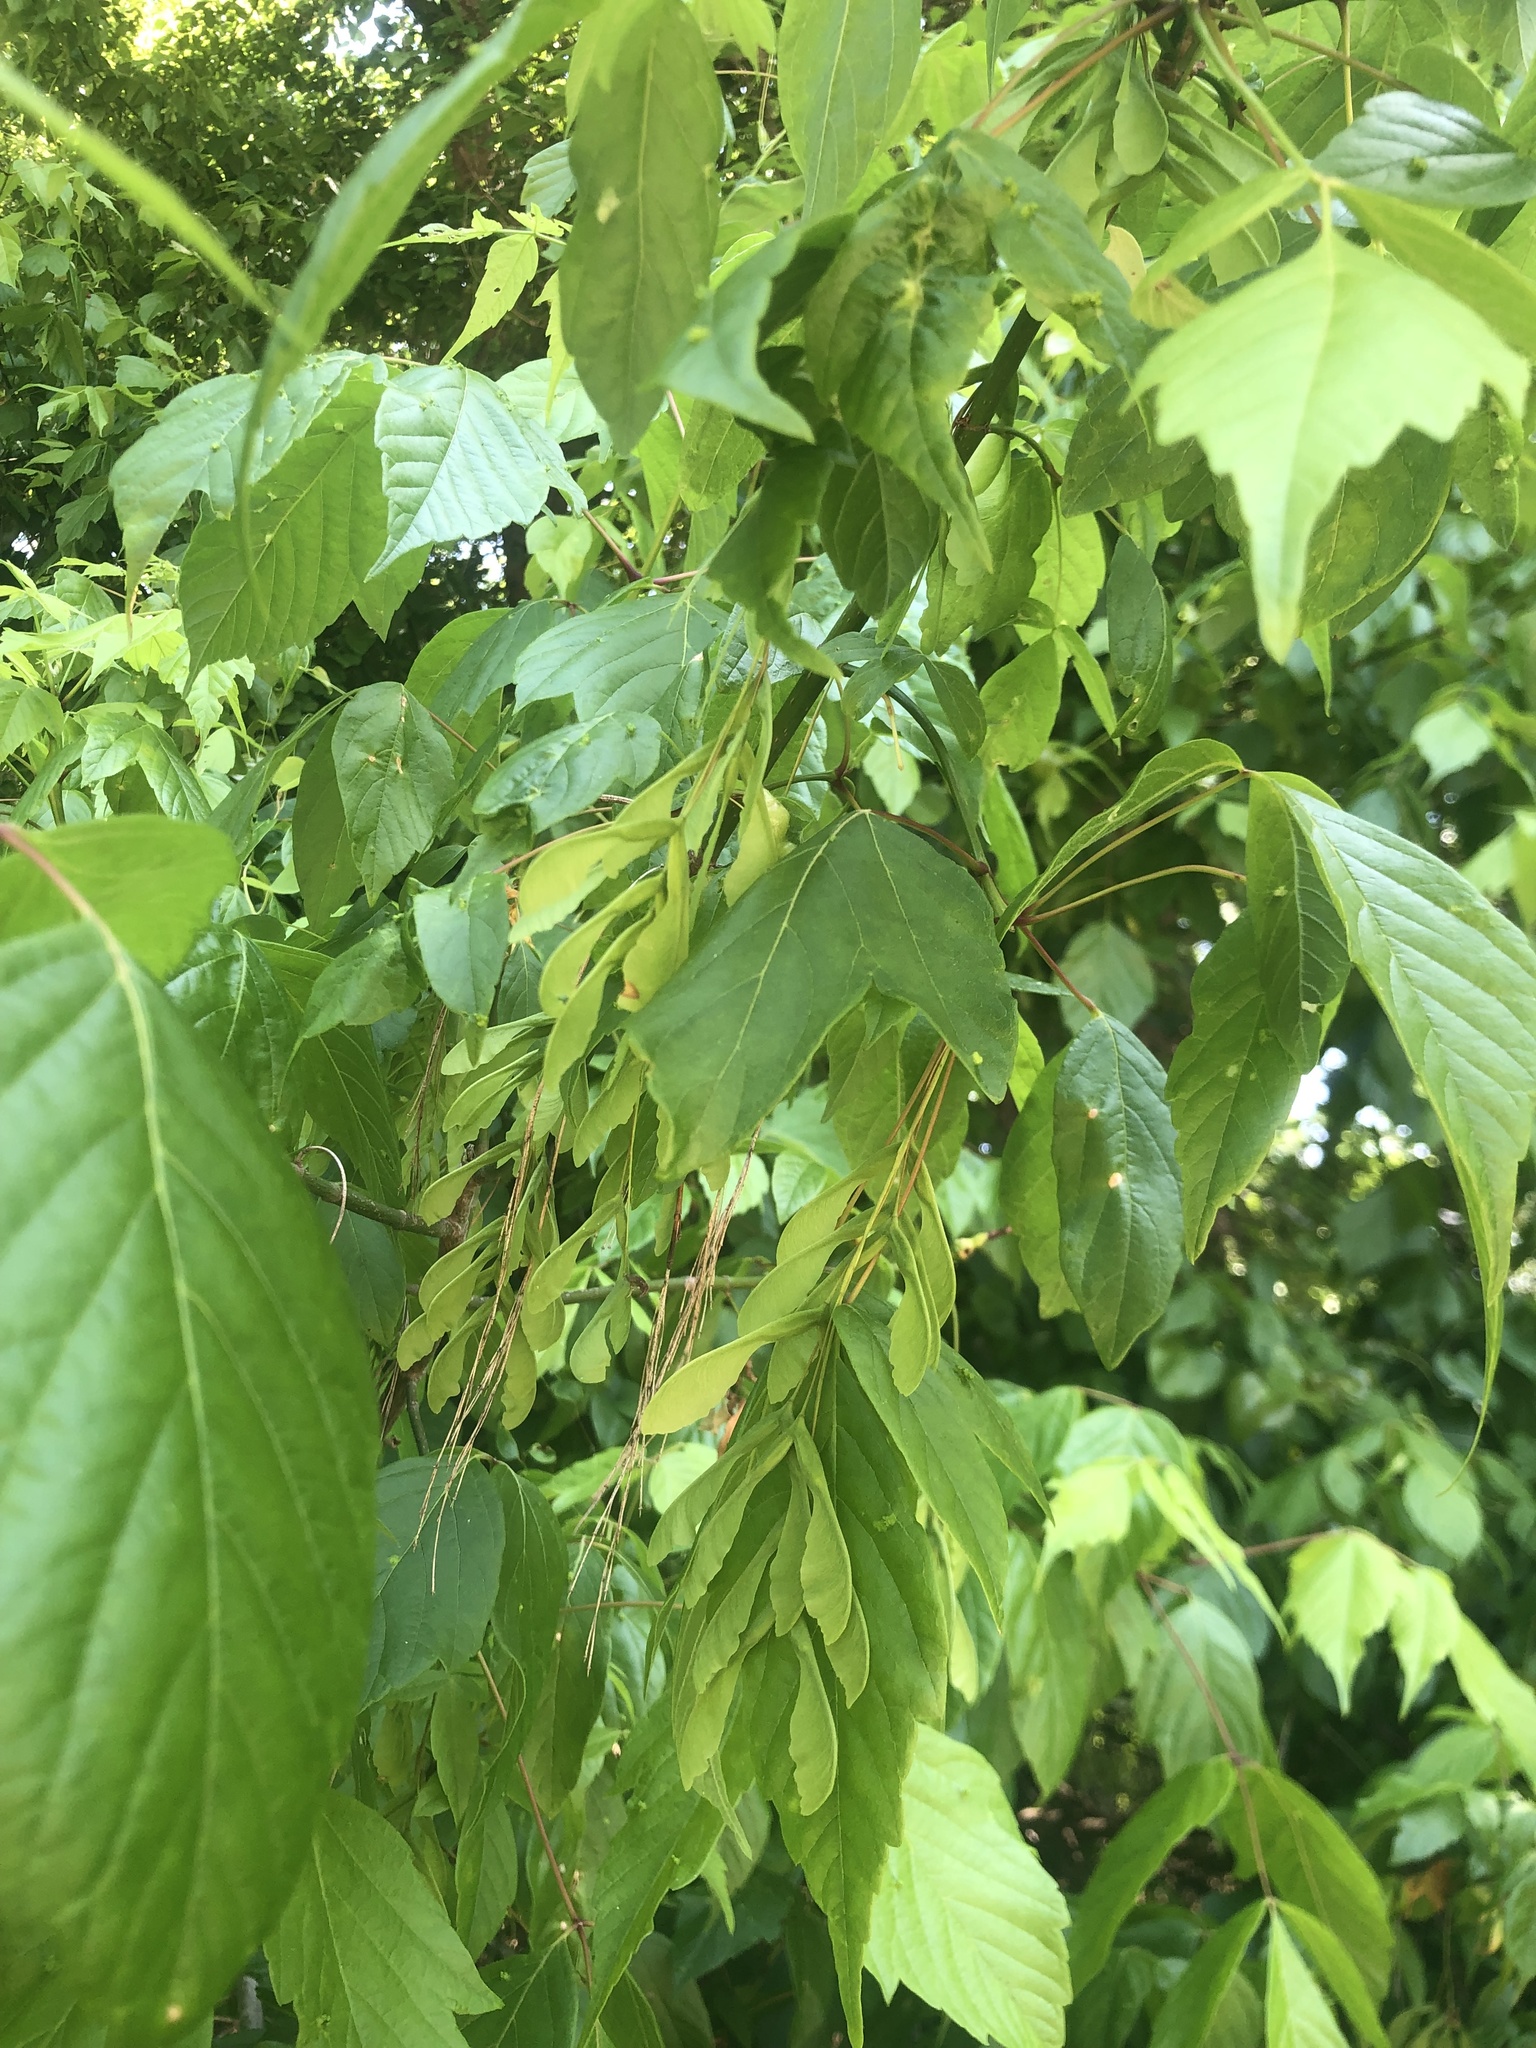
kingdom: Plantae
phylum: Tracheophyta
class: Magnoliopsida
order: Sapindales
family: Sapindaceae
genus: Acer
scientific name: Acer negundo
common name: Ashleaf maple
